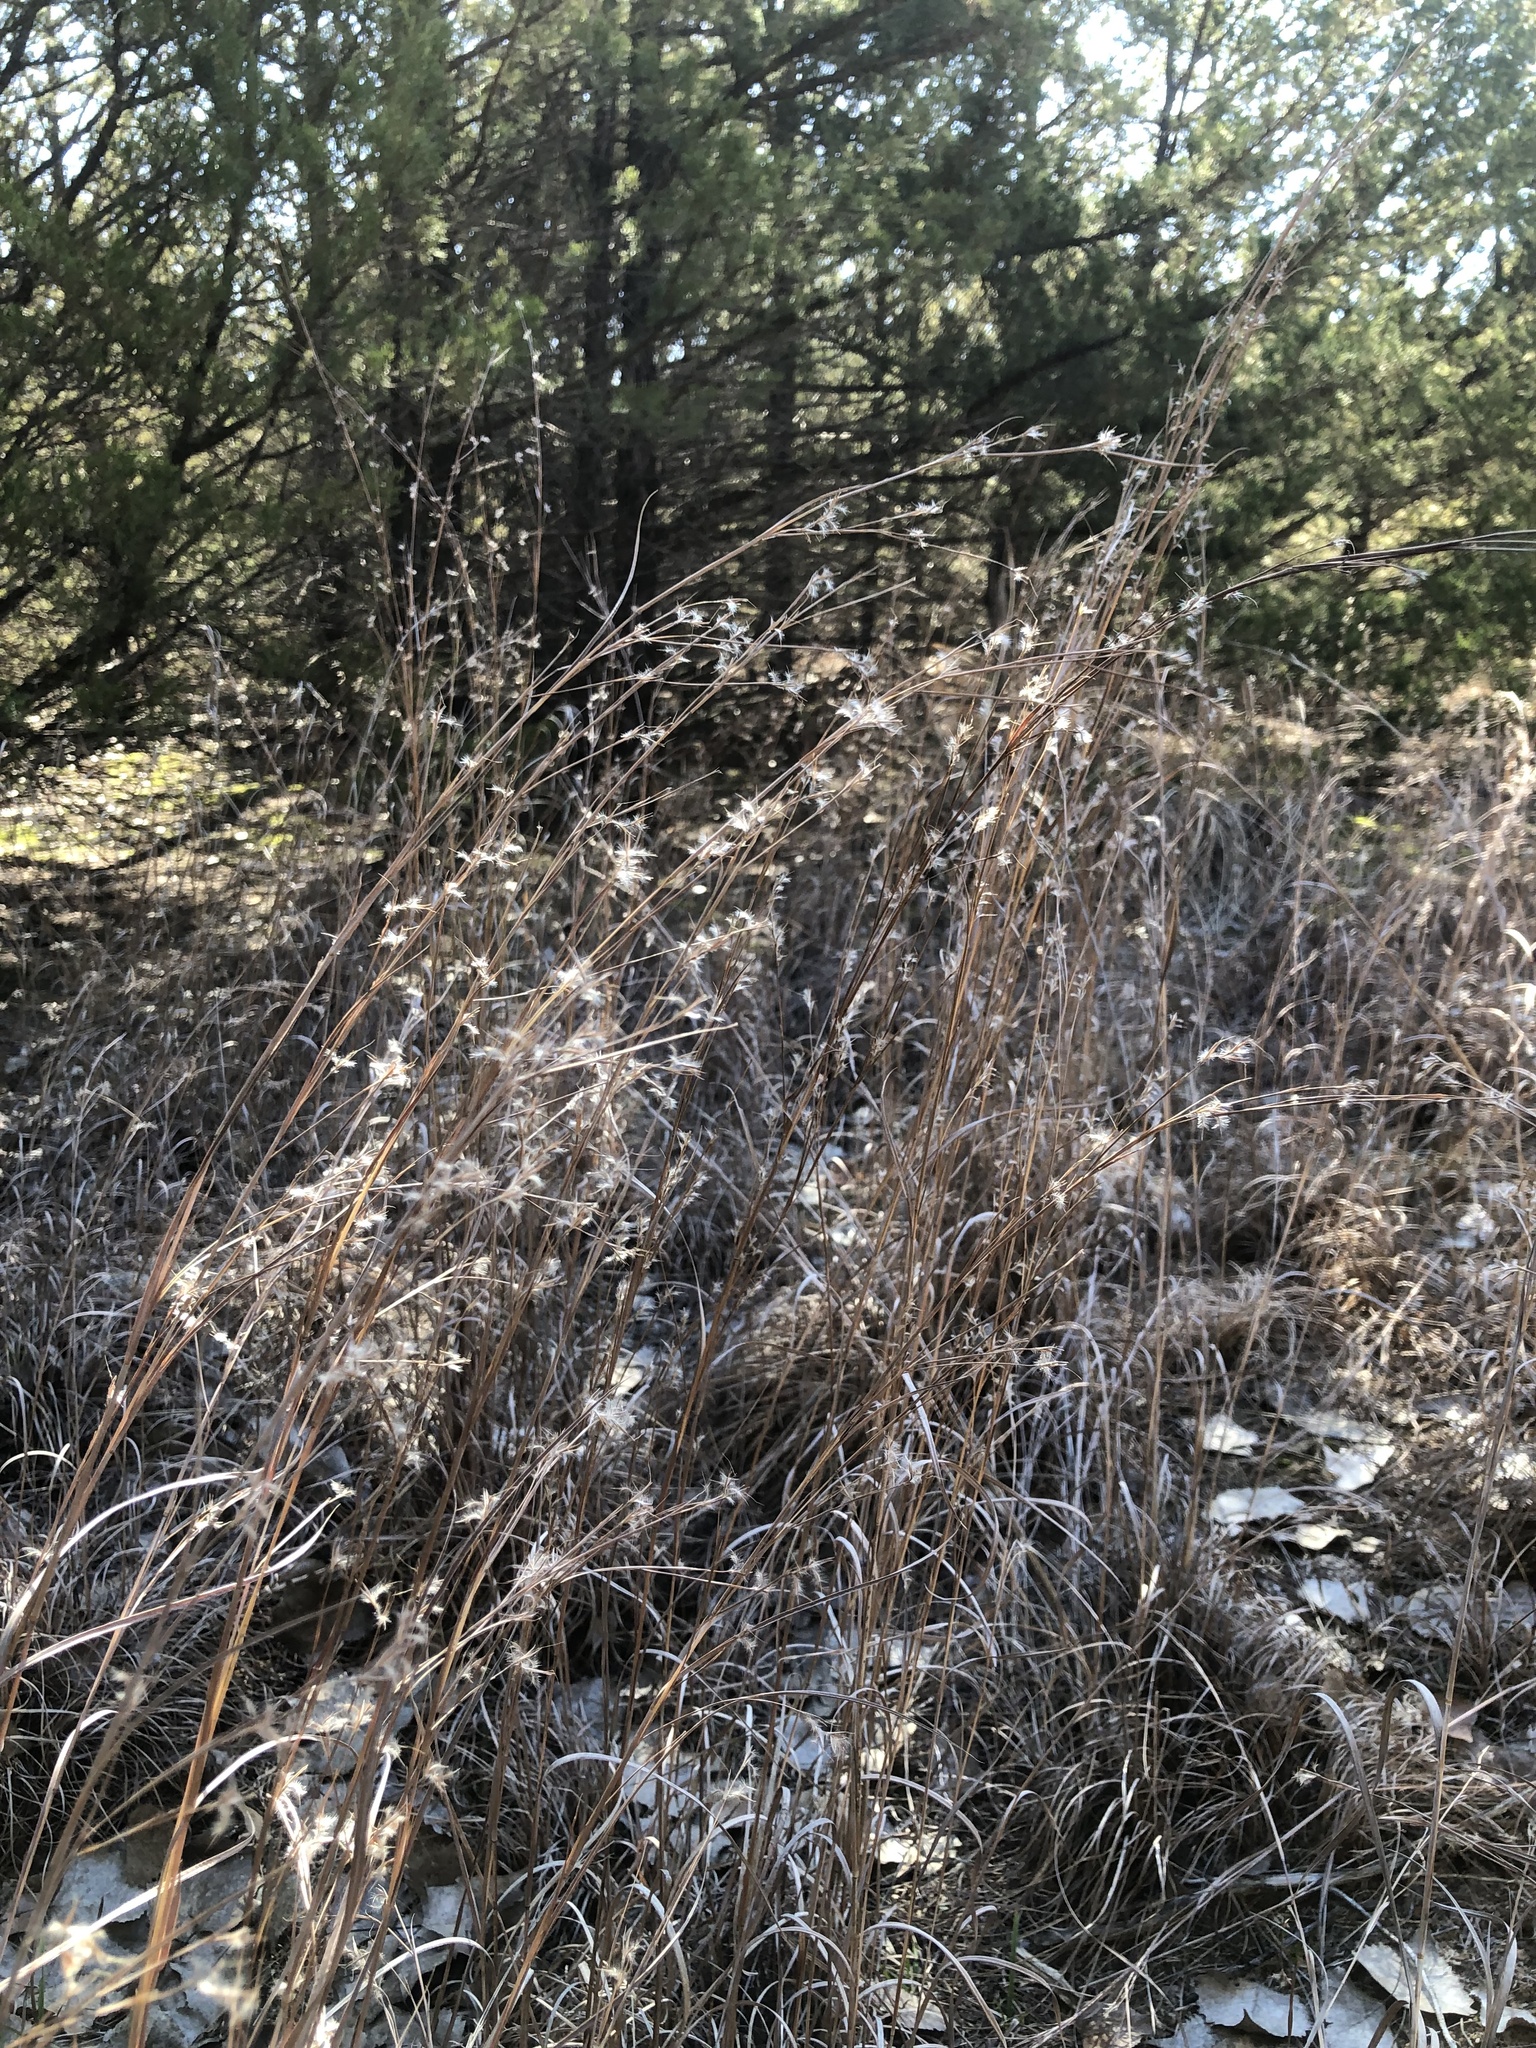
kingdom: Plantae
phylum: Tracheophyta
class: Liliopsida
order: Poales
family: Poaceae
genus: Schizachyrium
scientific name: Schizachyrium scoparium
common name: Little bluestem
